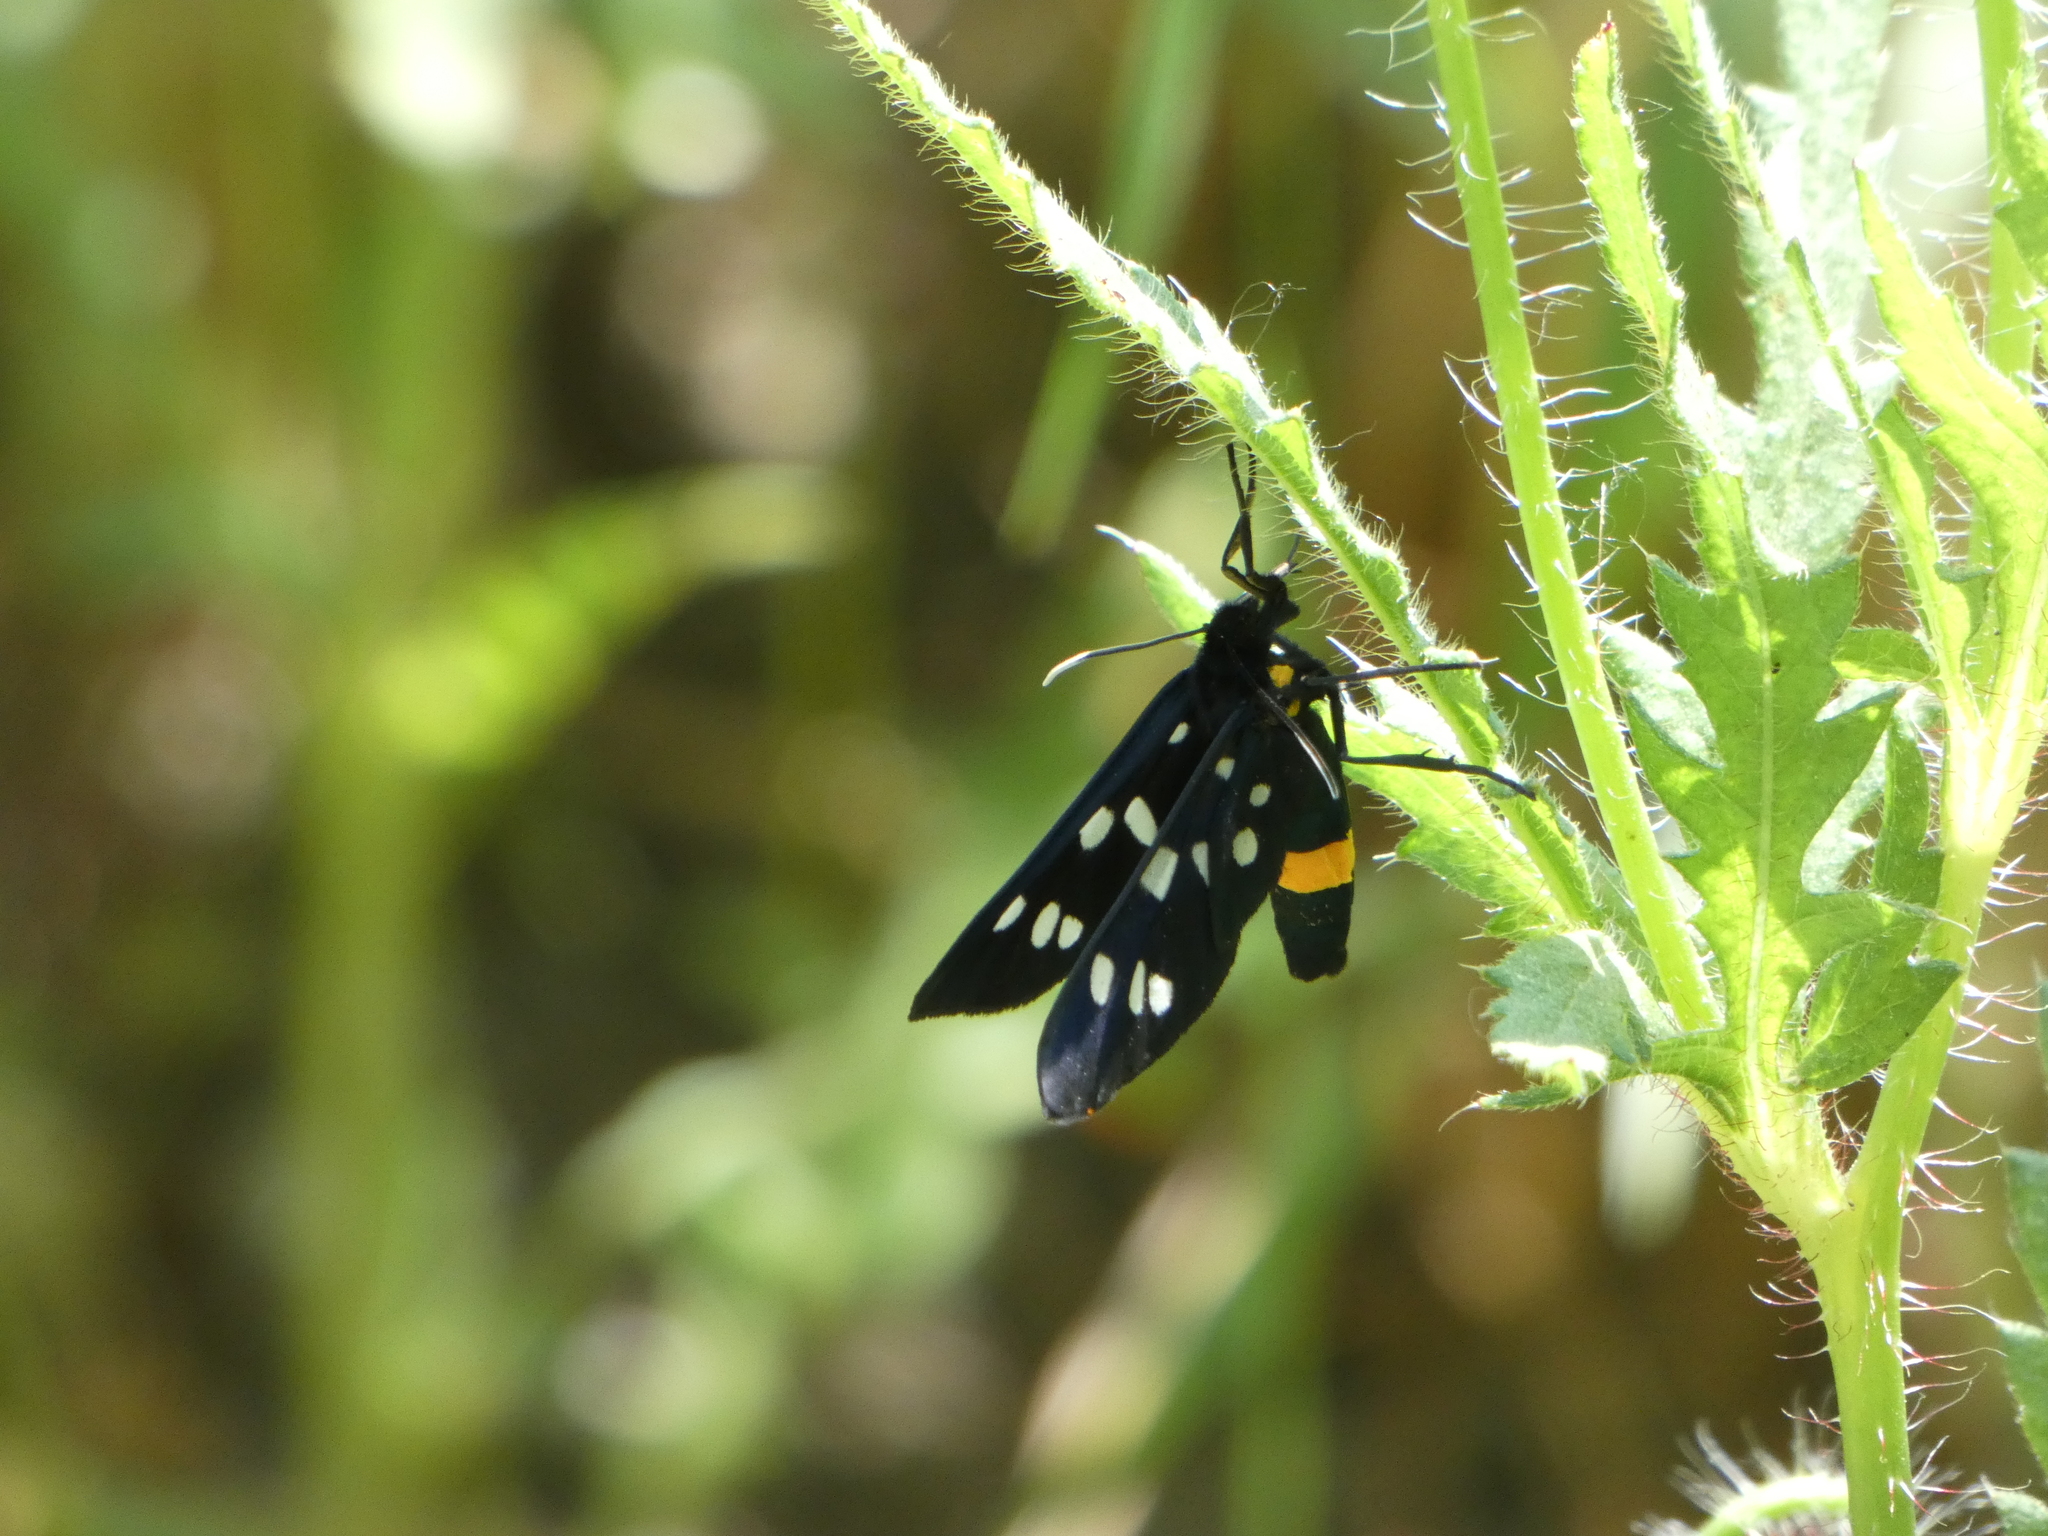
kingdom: Animalia
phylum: Arthropoda
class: Insecta
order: Lepidoptera
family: Erebidae
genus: Amata
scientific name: Amata phegea
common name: Nine-spotted
